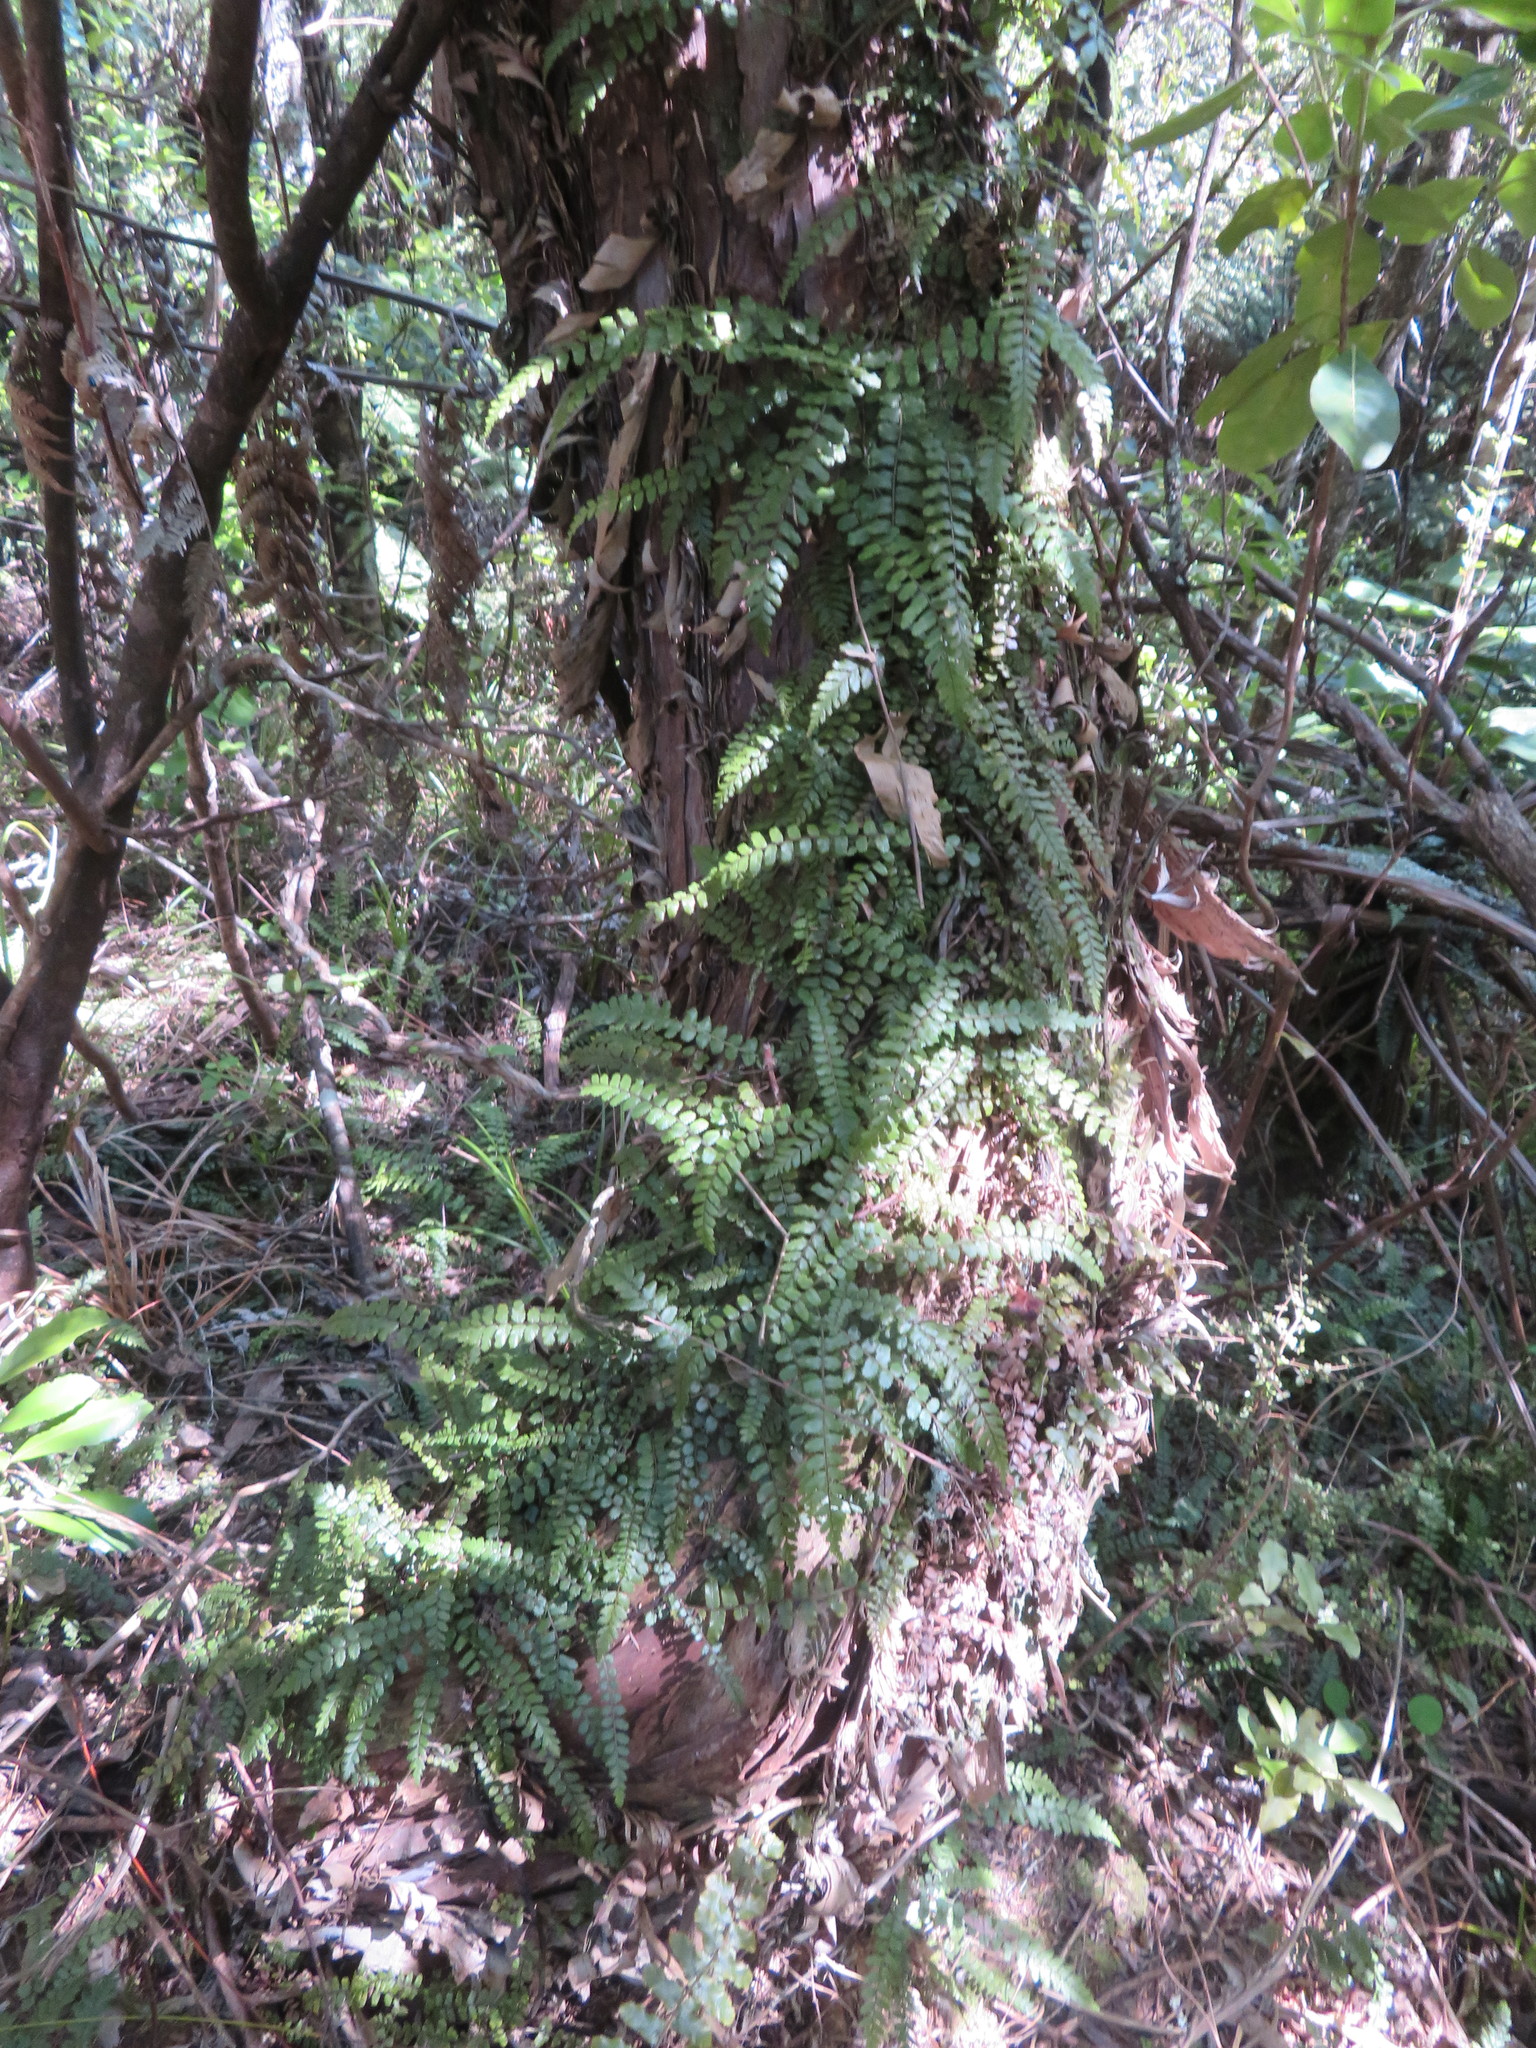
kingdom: Plantae
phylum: Tracheophyta
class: Polypodiopsida
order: Polypodiales
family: Blechnaceae
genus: Icarus
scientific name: Icarus filiformis
